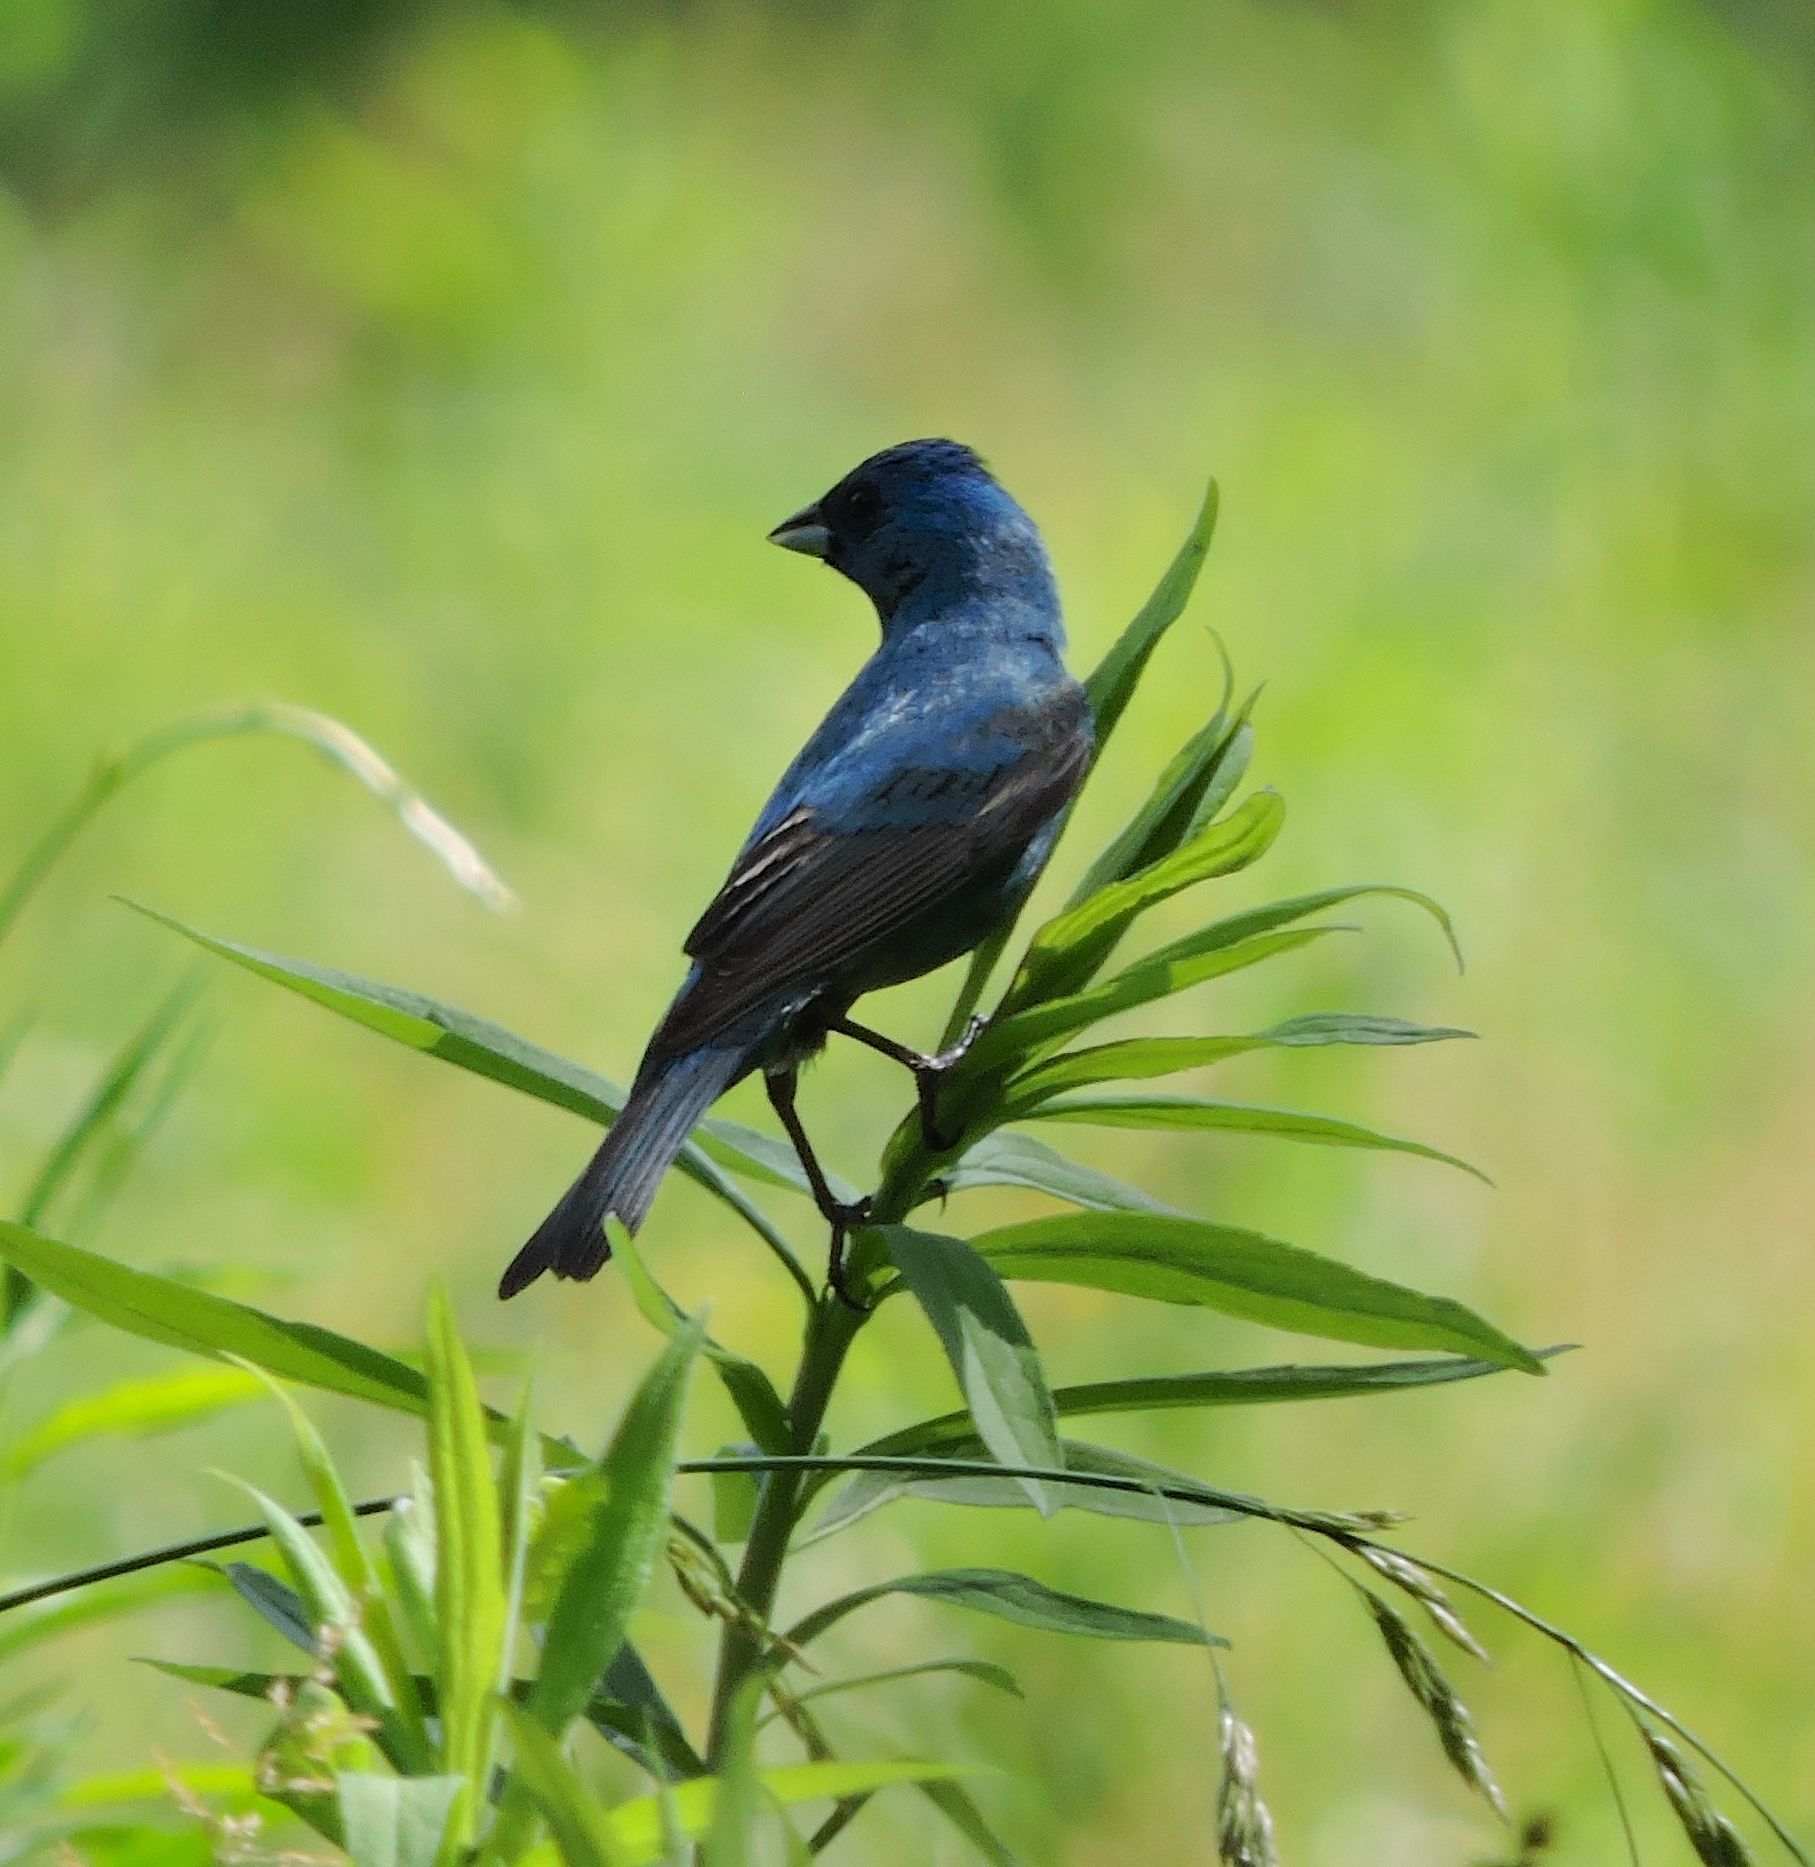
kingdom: Animalia
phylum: Chordata
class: Aves
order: Passeriformes
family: Cardinalidae
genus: Passerina
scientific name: Passerina cyanea
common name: Indigo bunting
